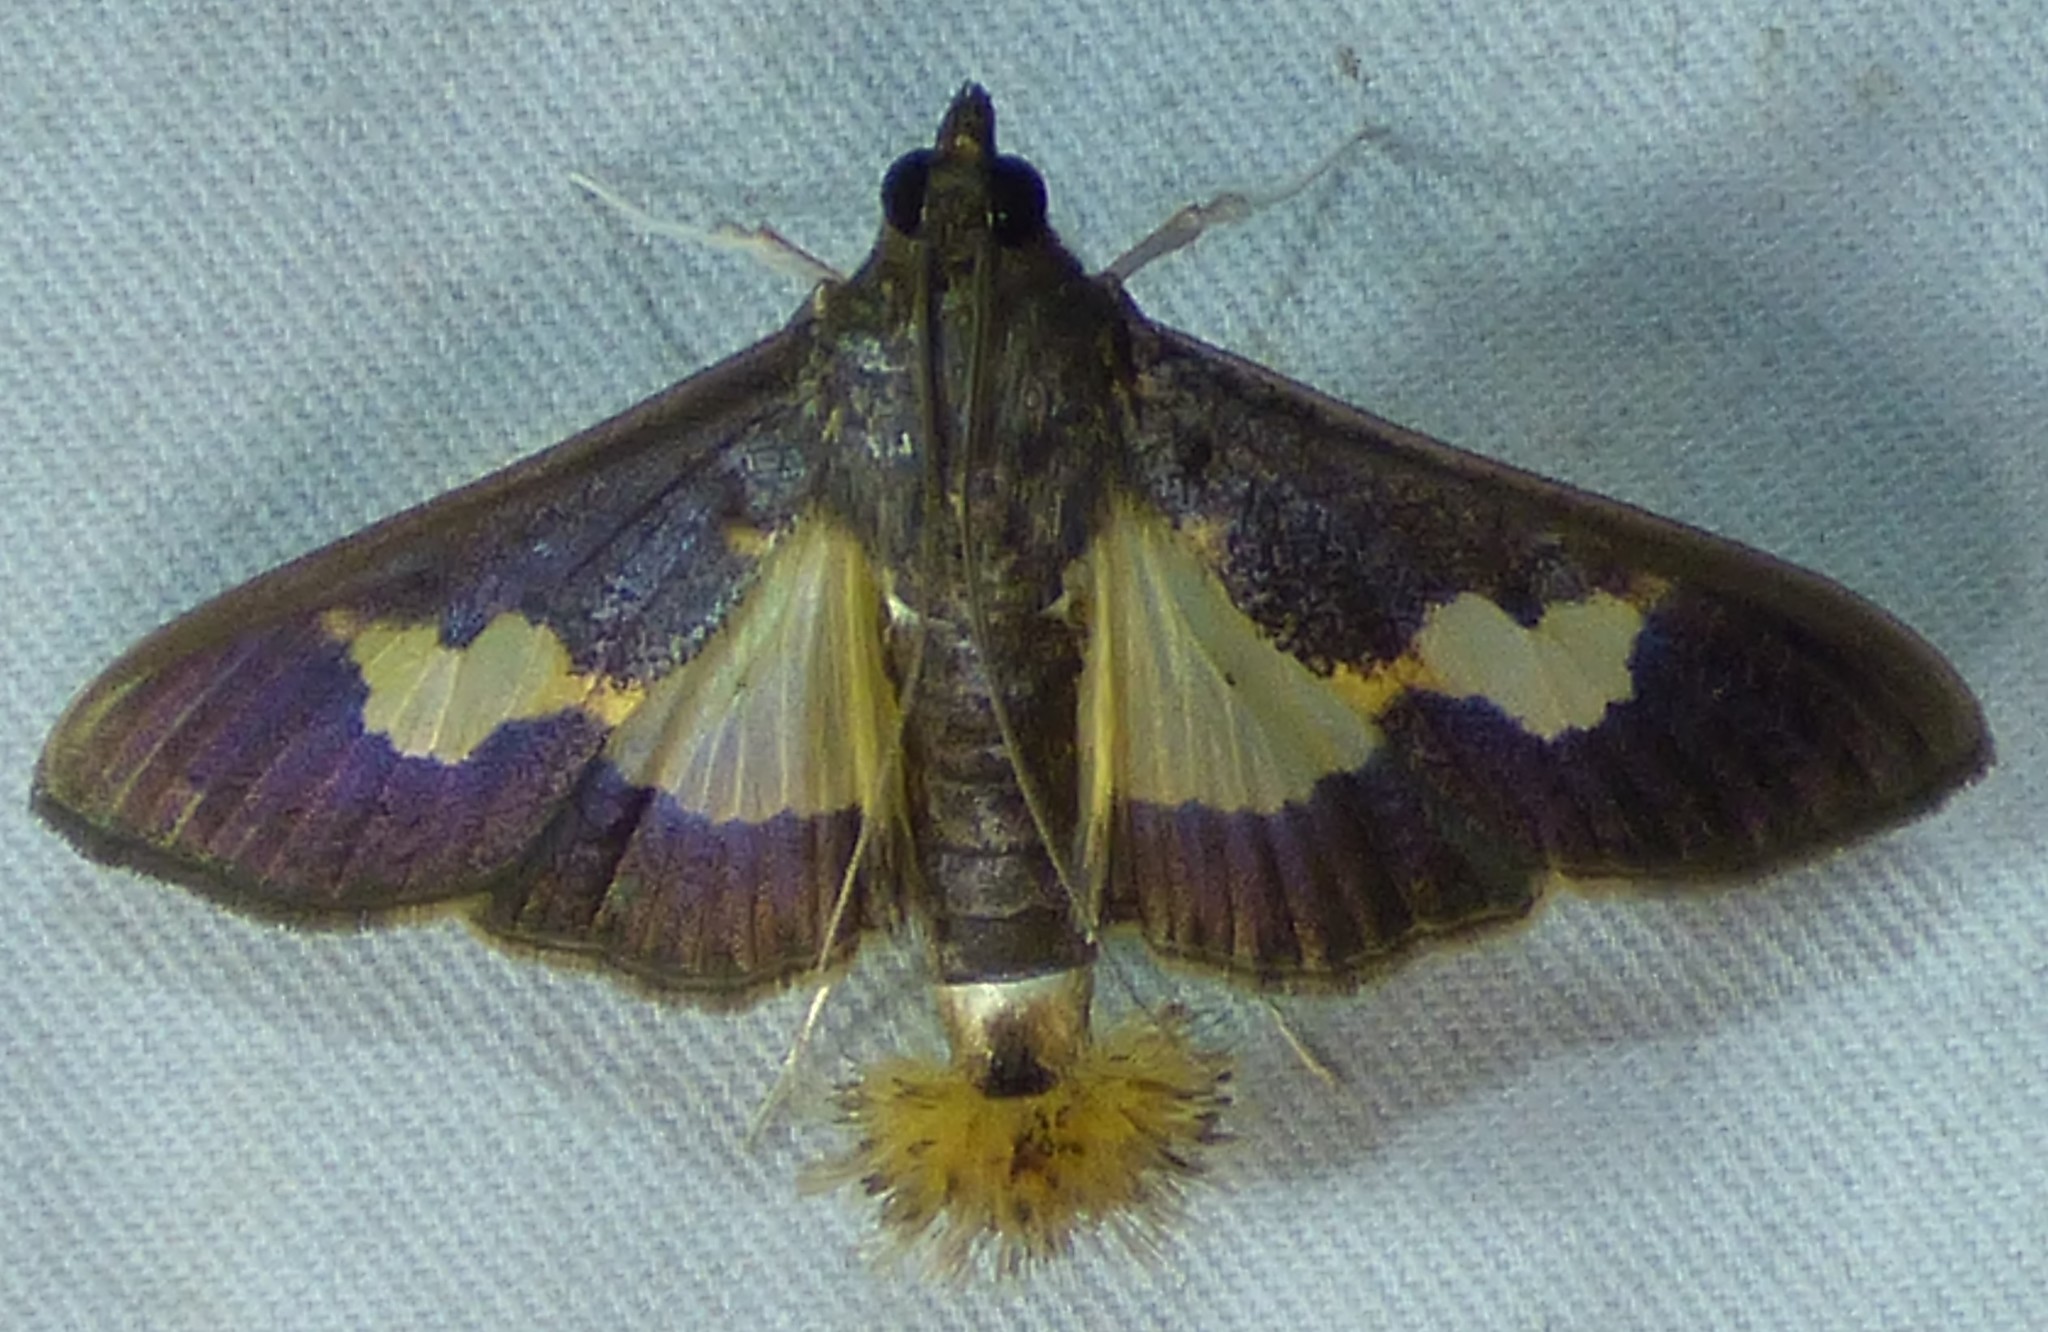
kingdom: Animalia
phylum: Arthropoda
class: Insecta
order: Lepidoptera
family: Crambidae
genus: Cryptographis
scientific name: Cryptographis nitidalis
